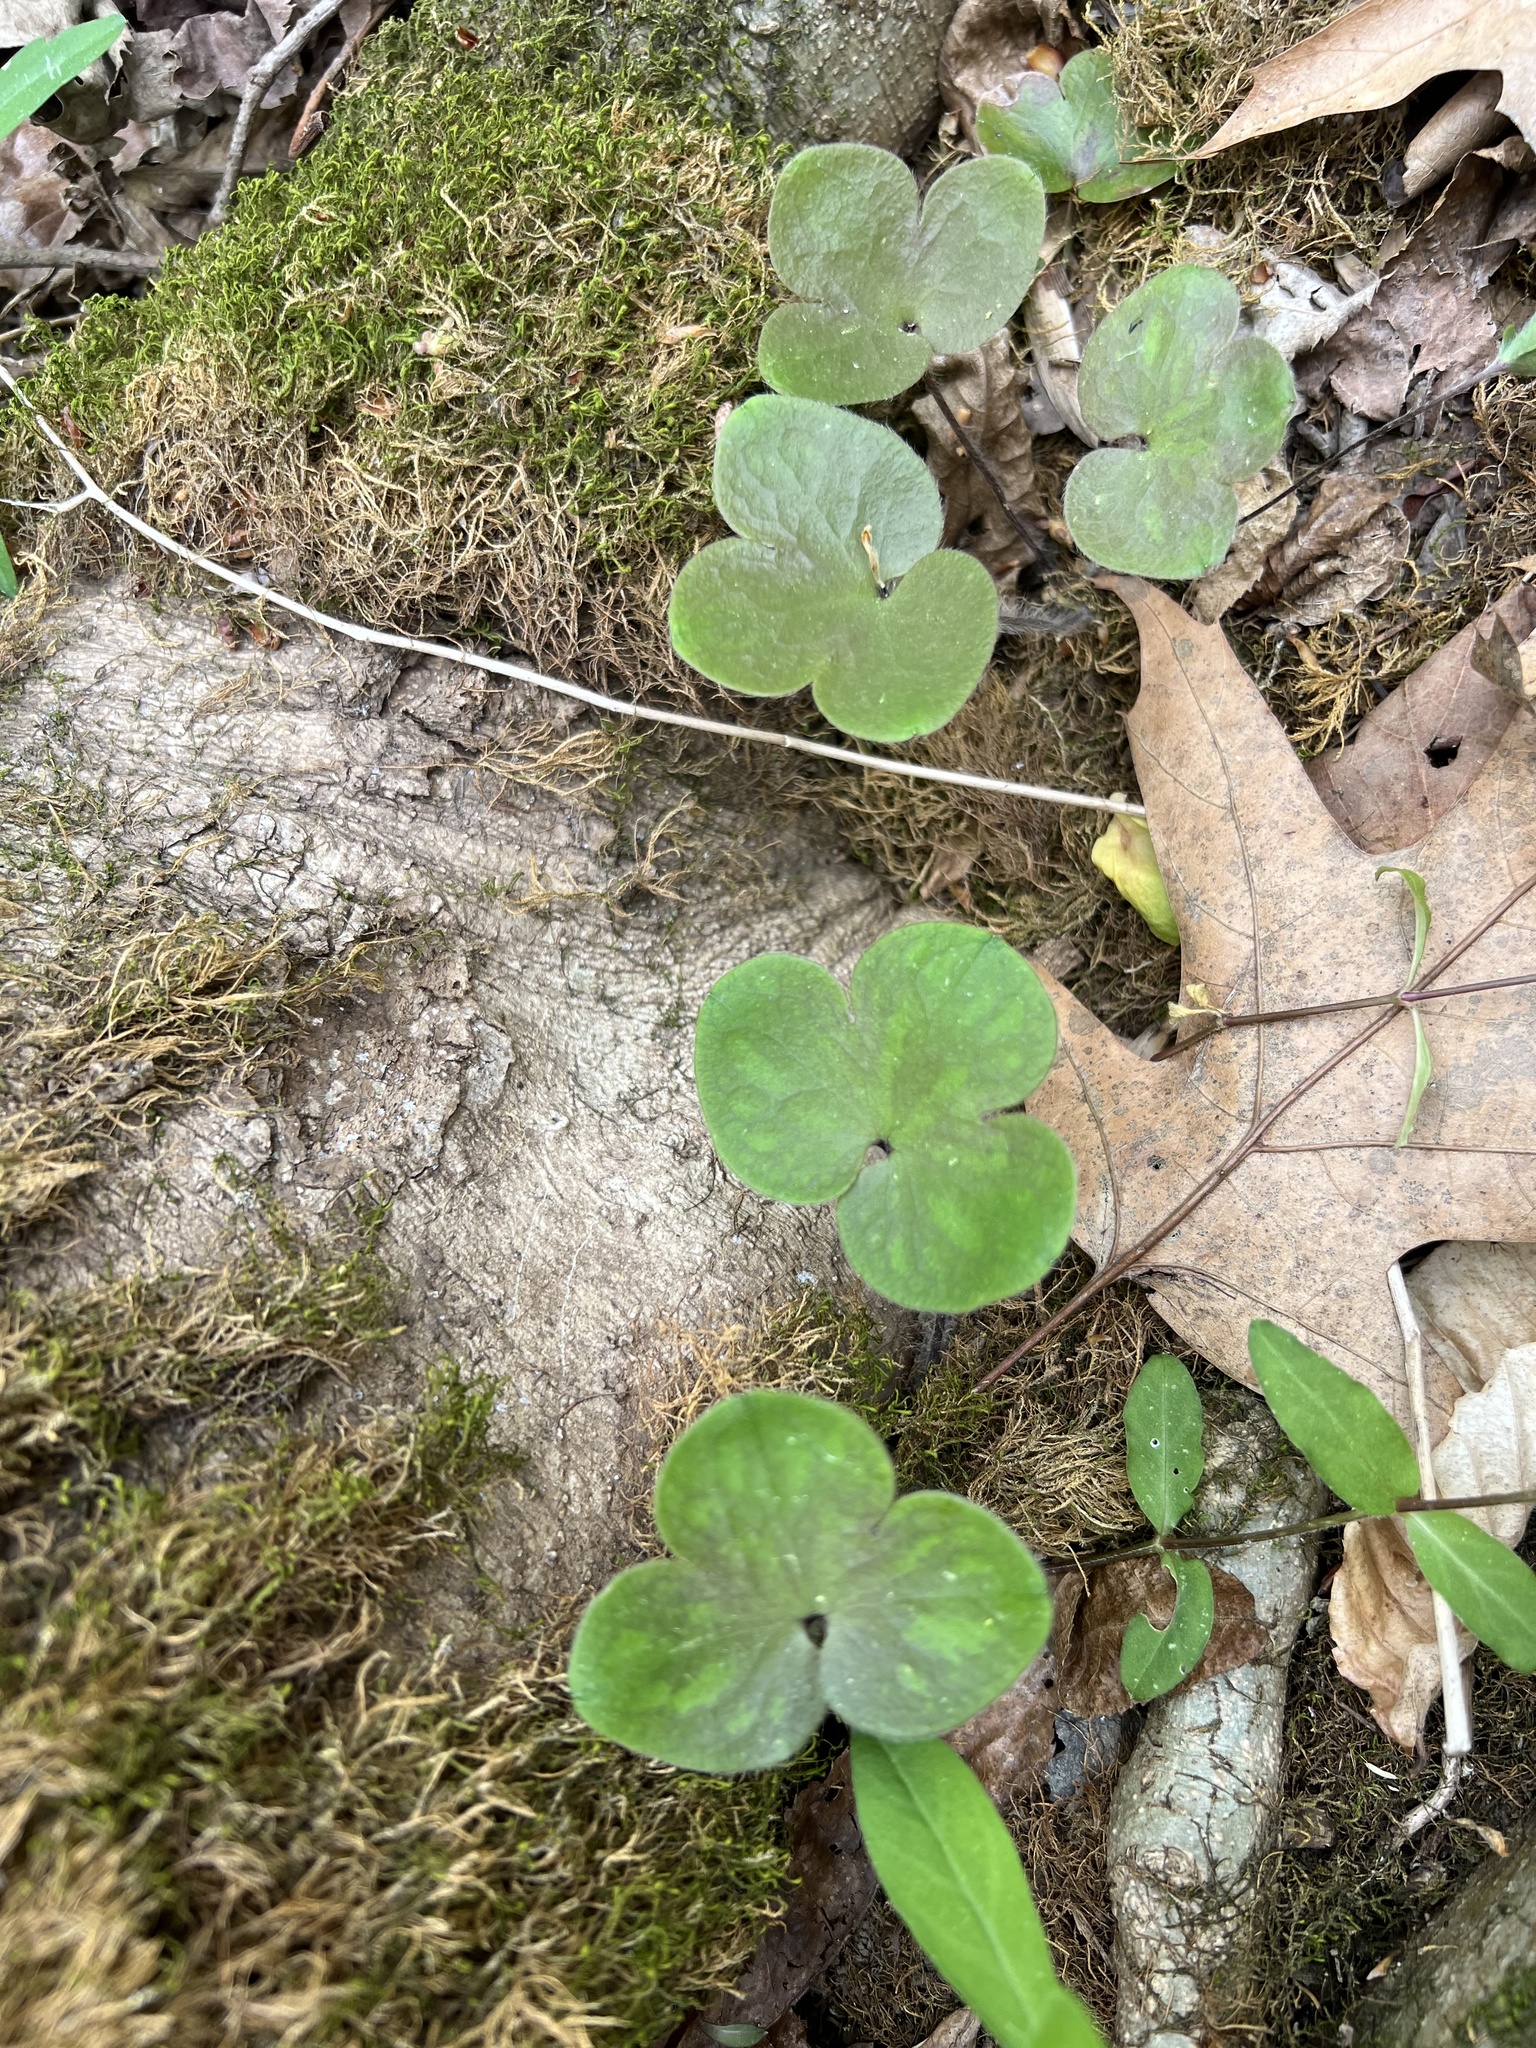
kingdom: Plantae
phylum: Tracheophyta
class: Magnoliopsida
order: Ranunculales
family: Ranunculaceae
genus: Hepatica
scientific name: Hepatica americana
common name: American hepatica
